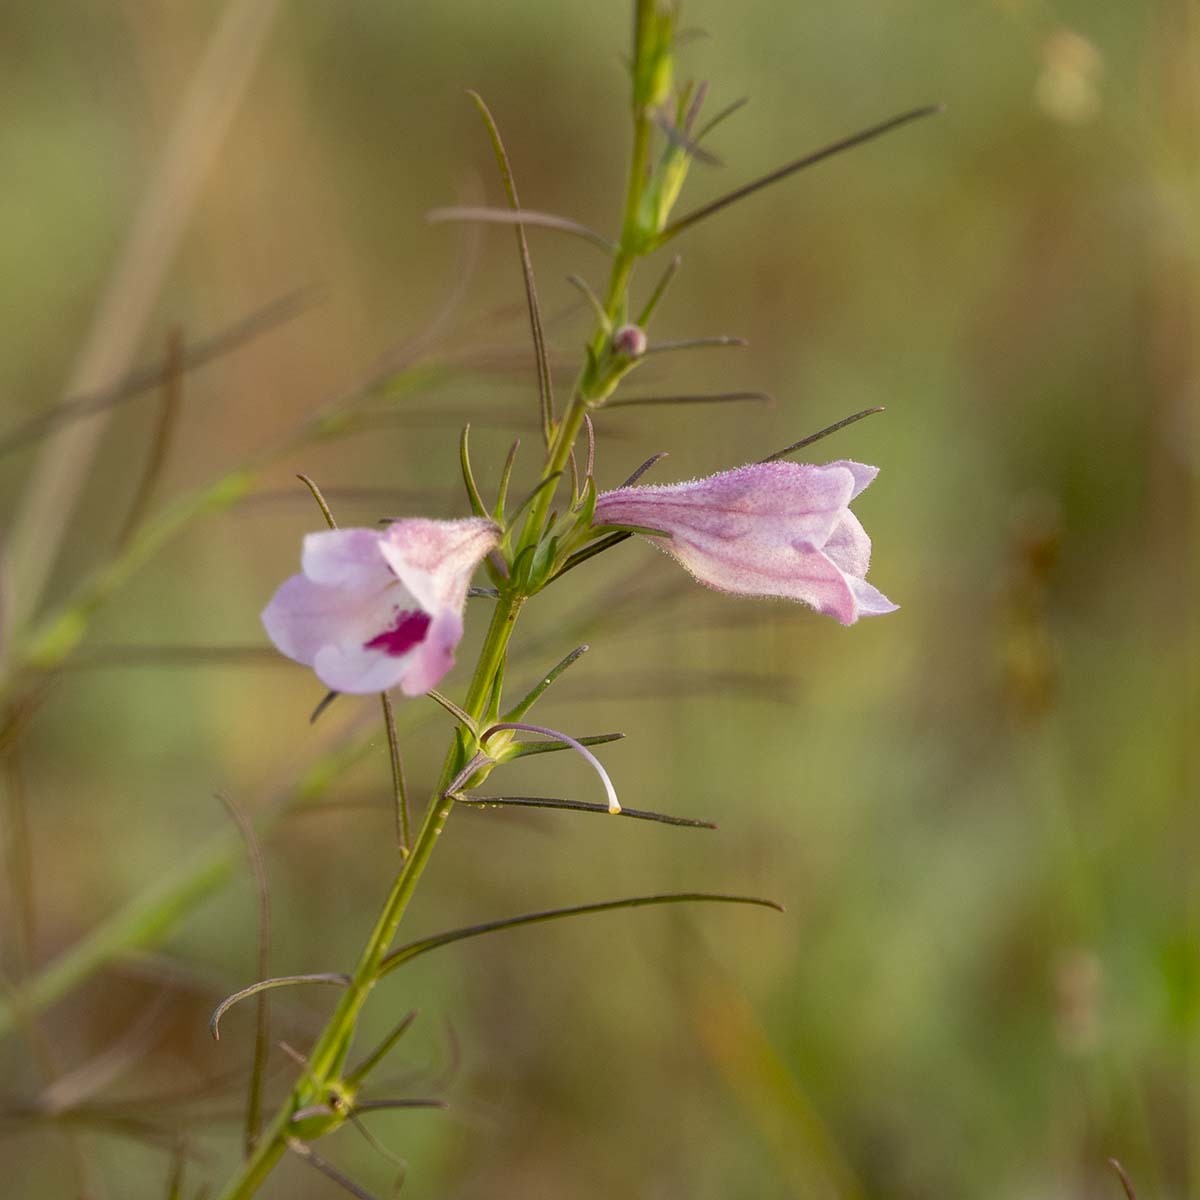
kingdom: Plantae
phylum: Tracheophyta
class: Magnoliopsida
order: Lamiales
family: Orobanchaceae
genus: Parasopubia
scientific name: Parasopubia delphiniifolia
